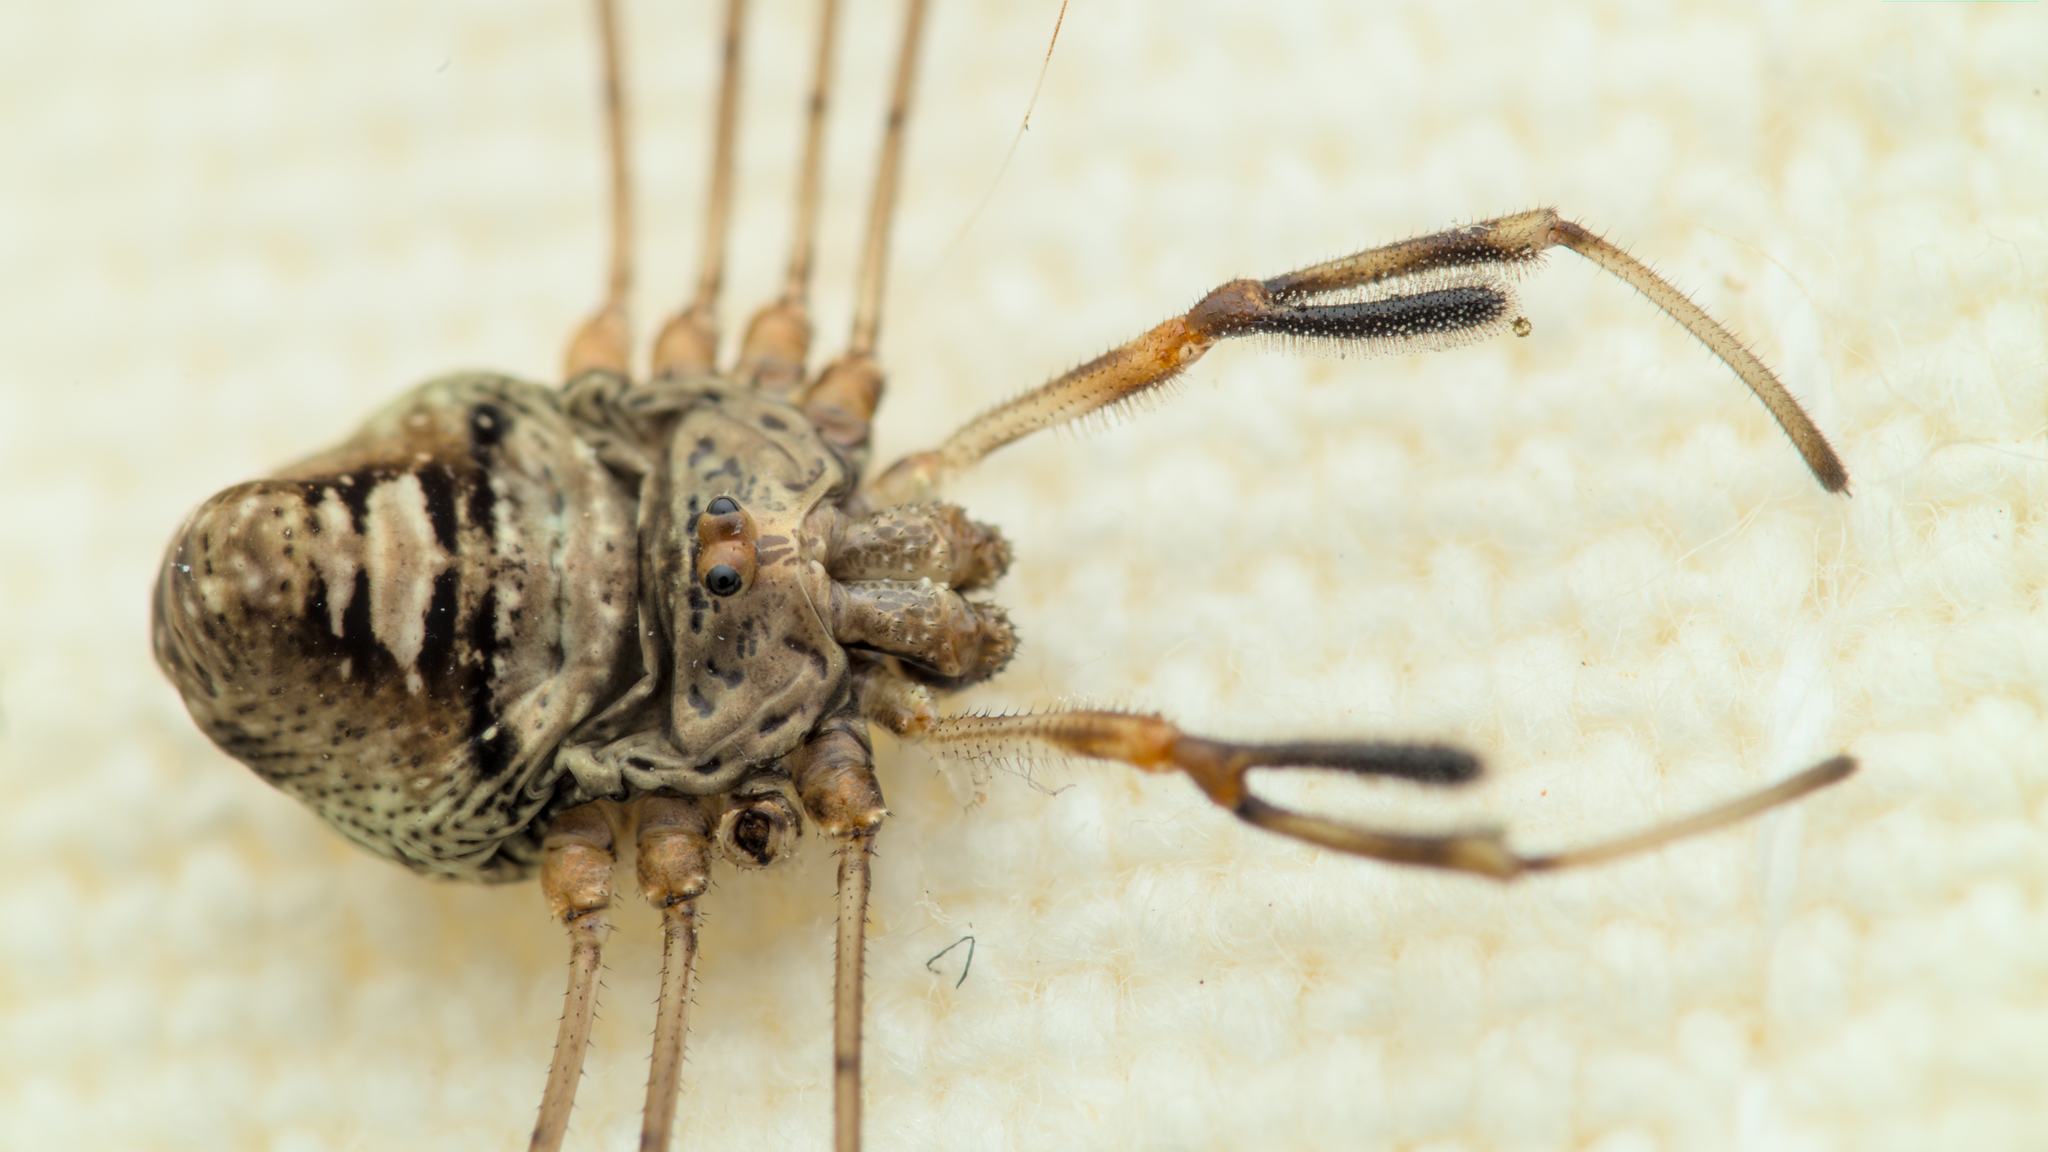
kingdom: Animalia
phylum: Arthropoda
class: Arachnida
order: Opiliones
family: Phalangiidae
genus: Dicranopalpus
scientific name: Dicranopalpus ramosus
